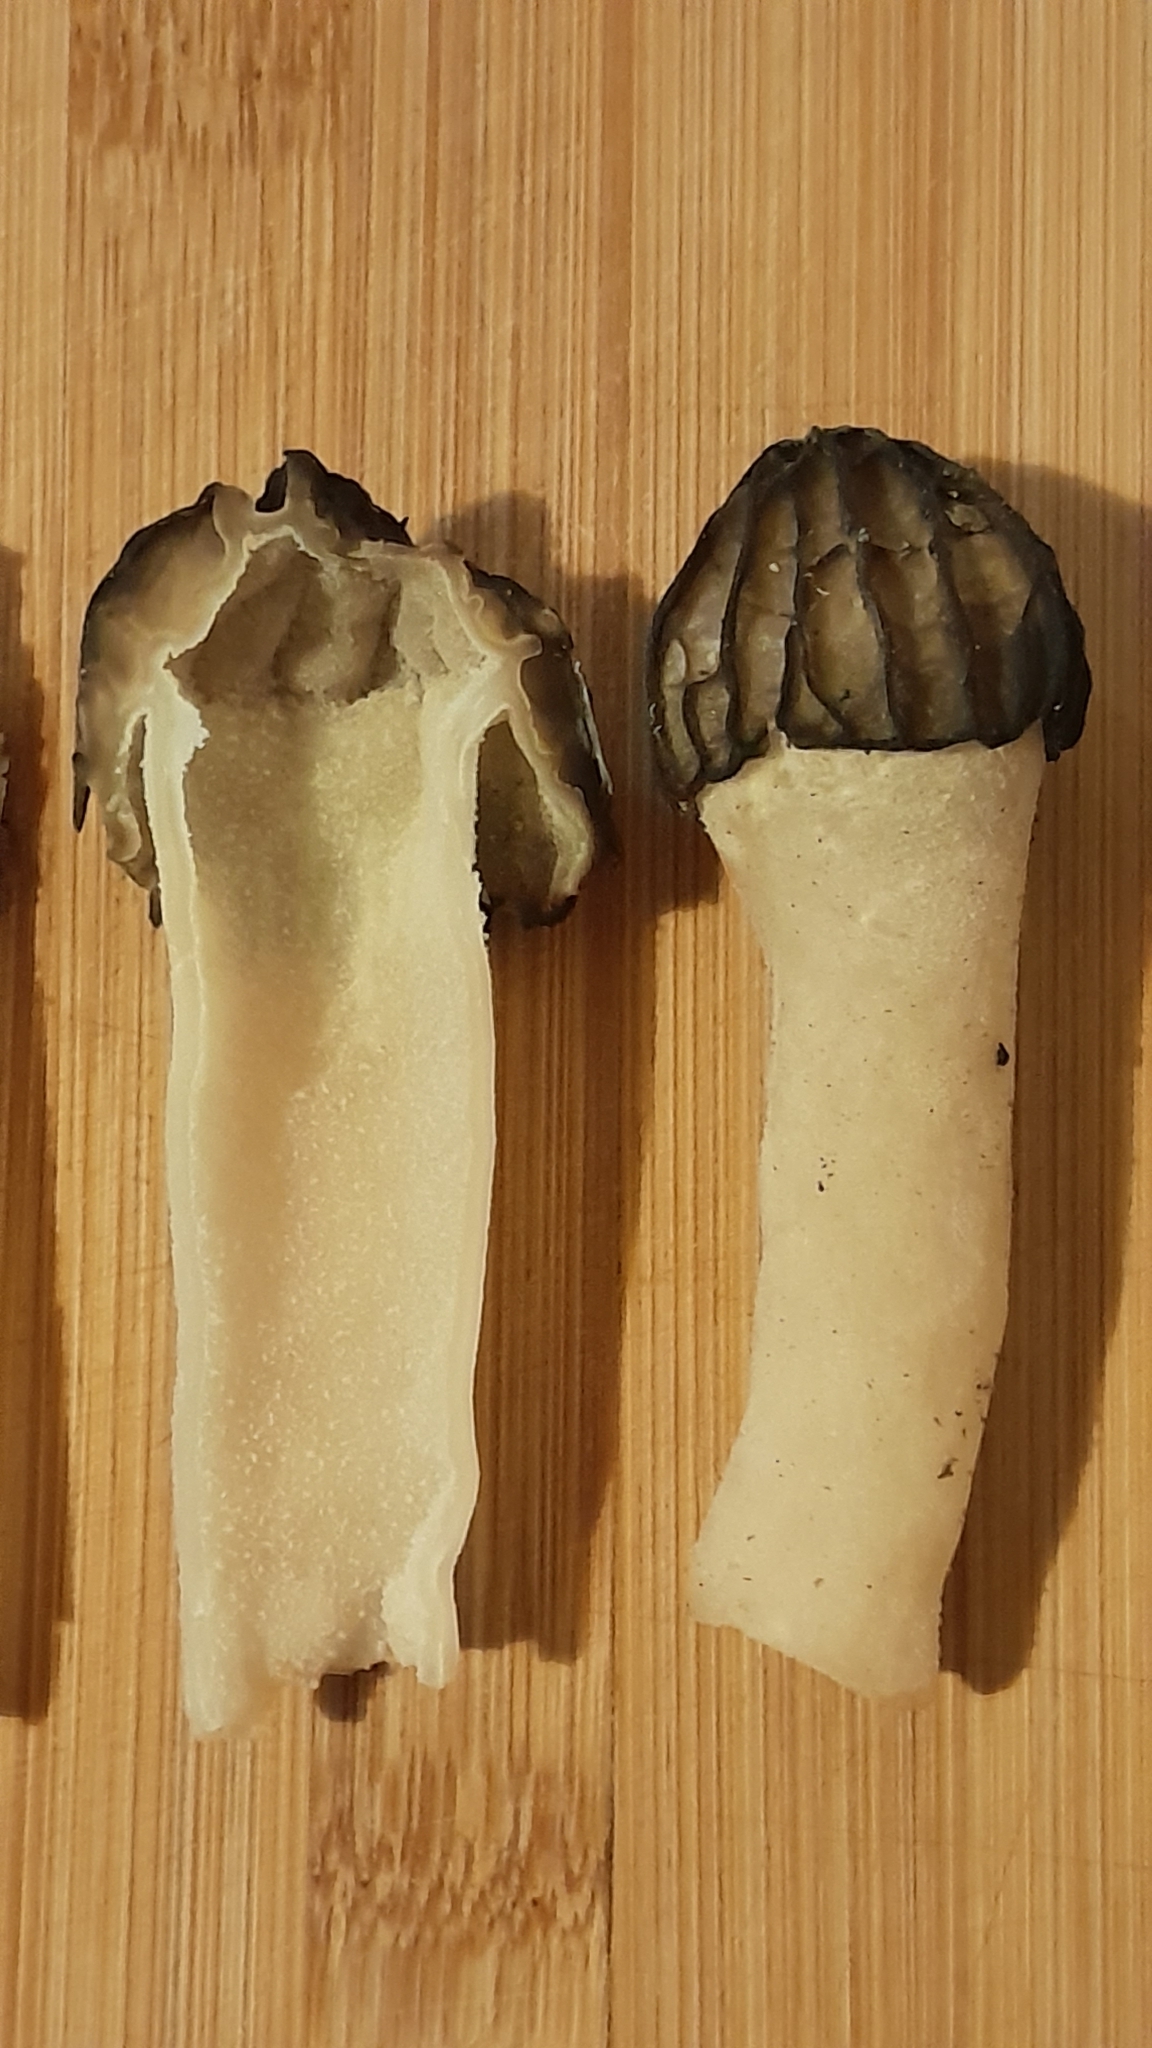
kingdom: Fungi
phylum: Ascomycota
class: Pezizomycetes
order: Pezizales
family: Morchellaceae
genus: Morchella
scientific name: Morchella semilibera
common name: Semifree morel
